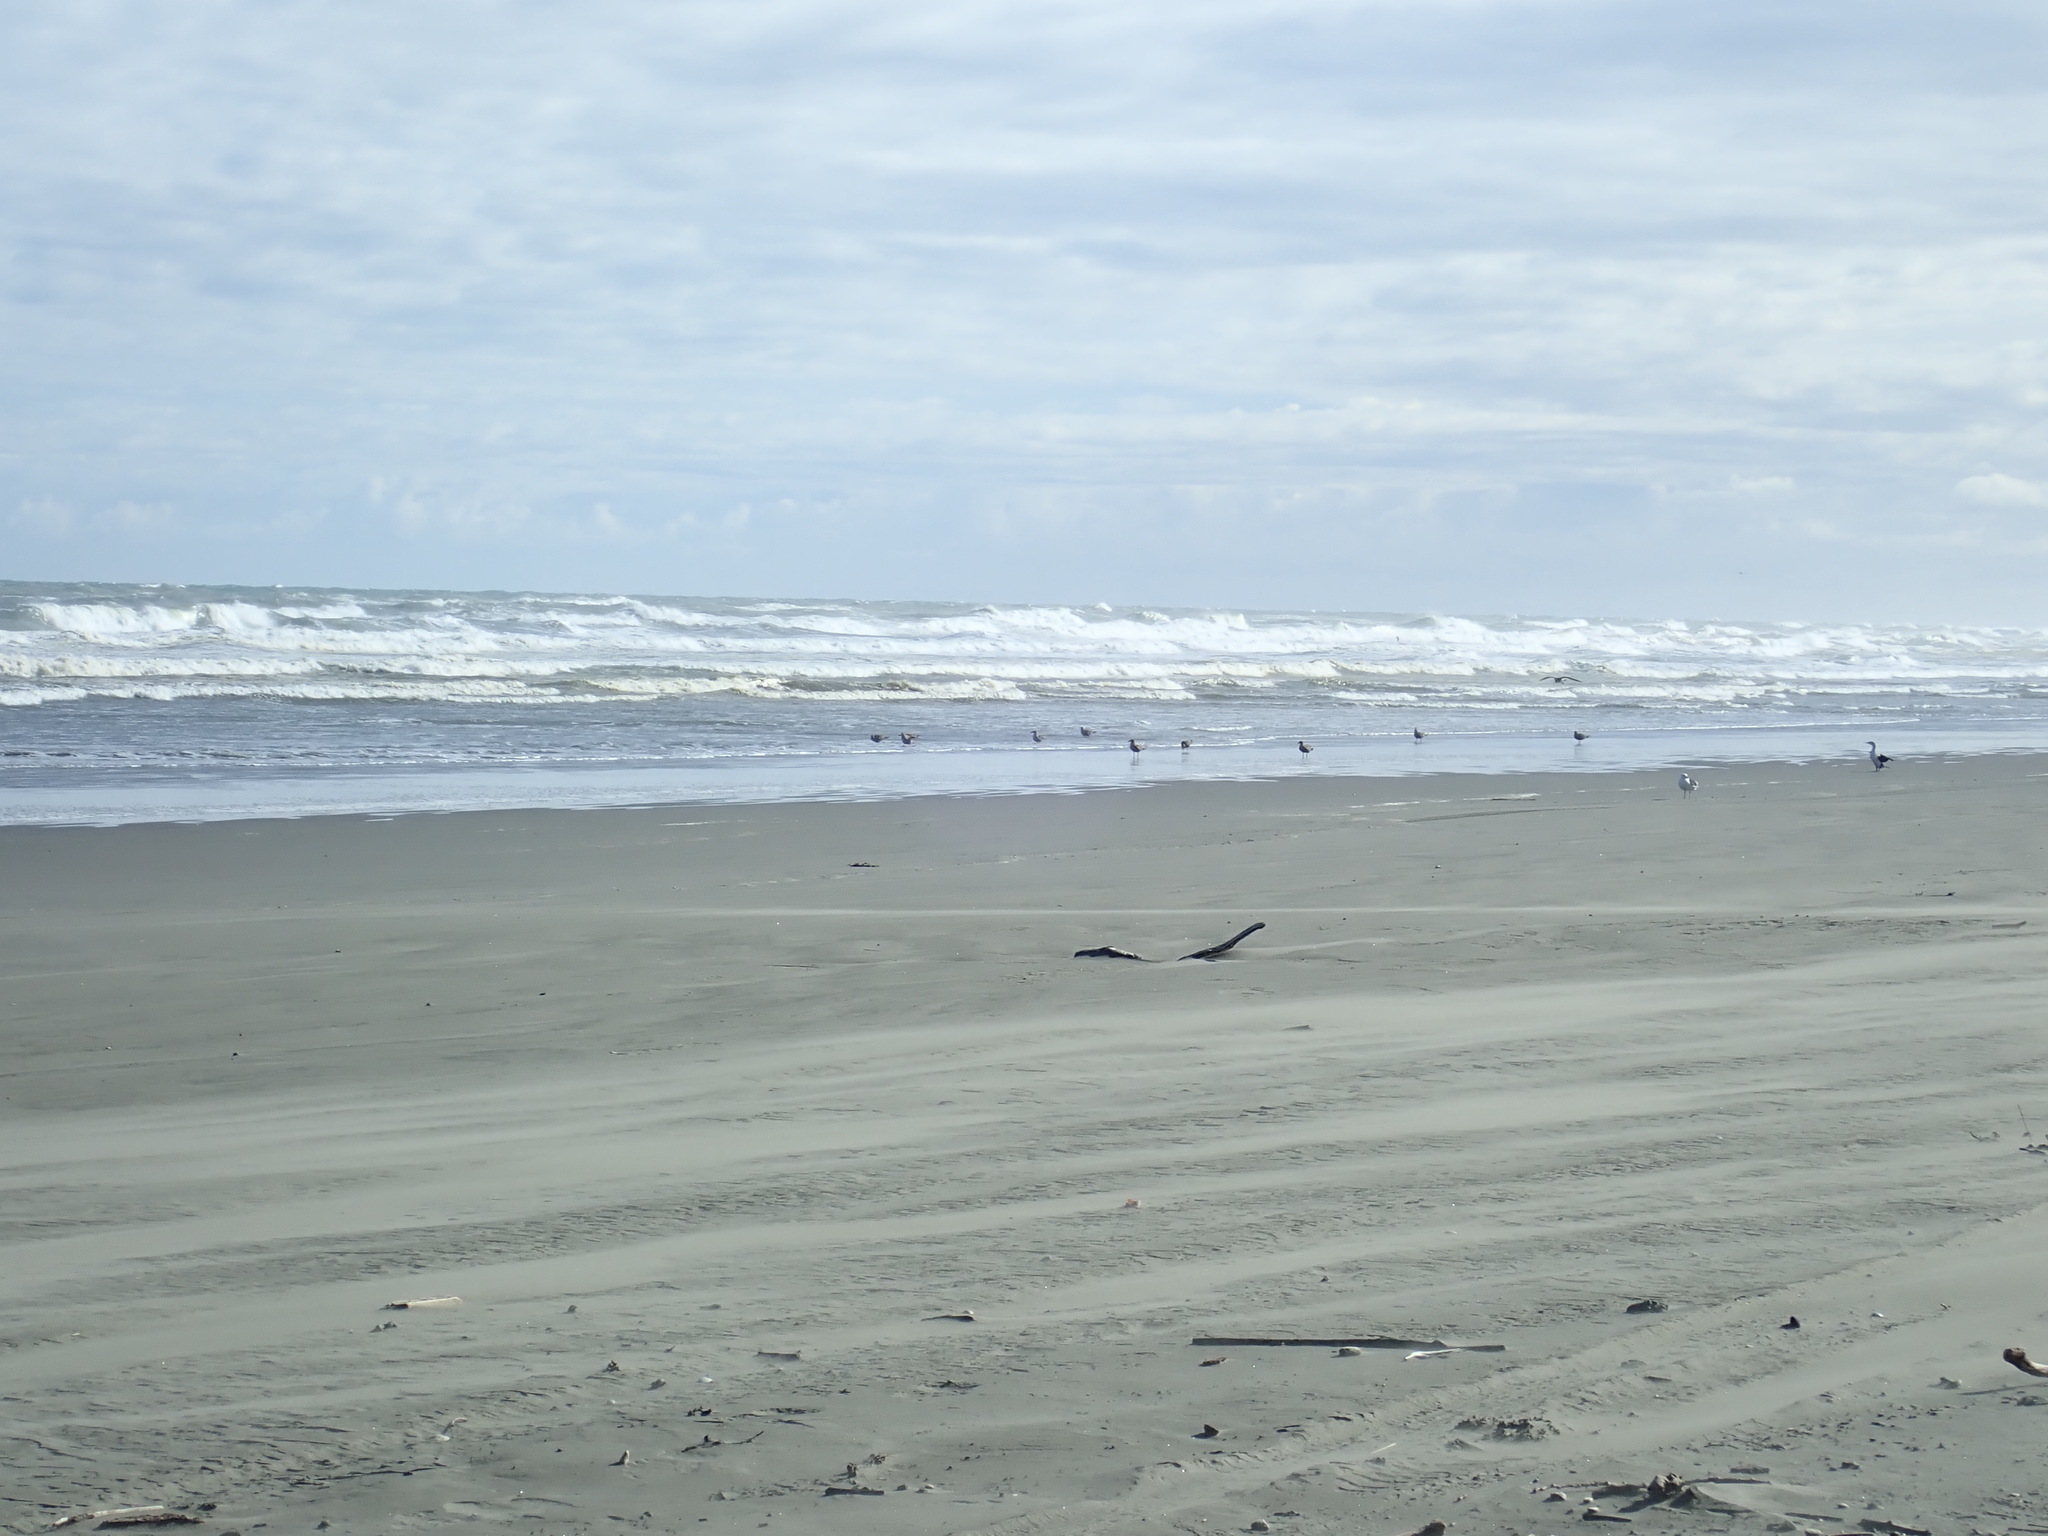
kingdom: Animalia
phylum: Chordata
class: Aves
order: Suliformes
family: Phalacrocoracidae
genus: Phalacrocorax
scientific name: Phalacrocorax varius
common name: Pied cormorant
